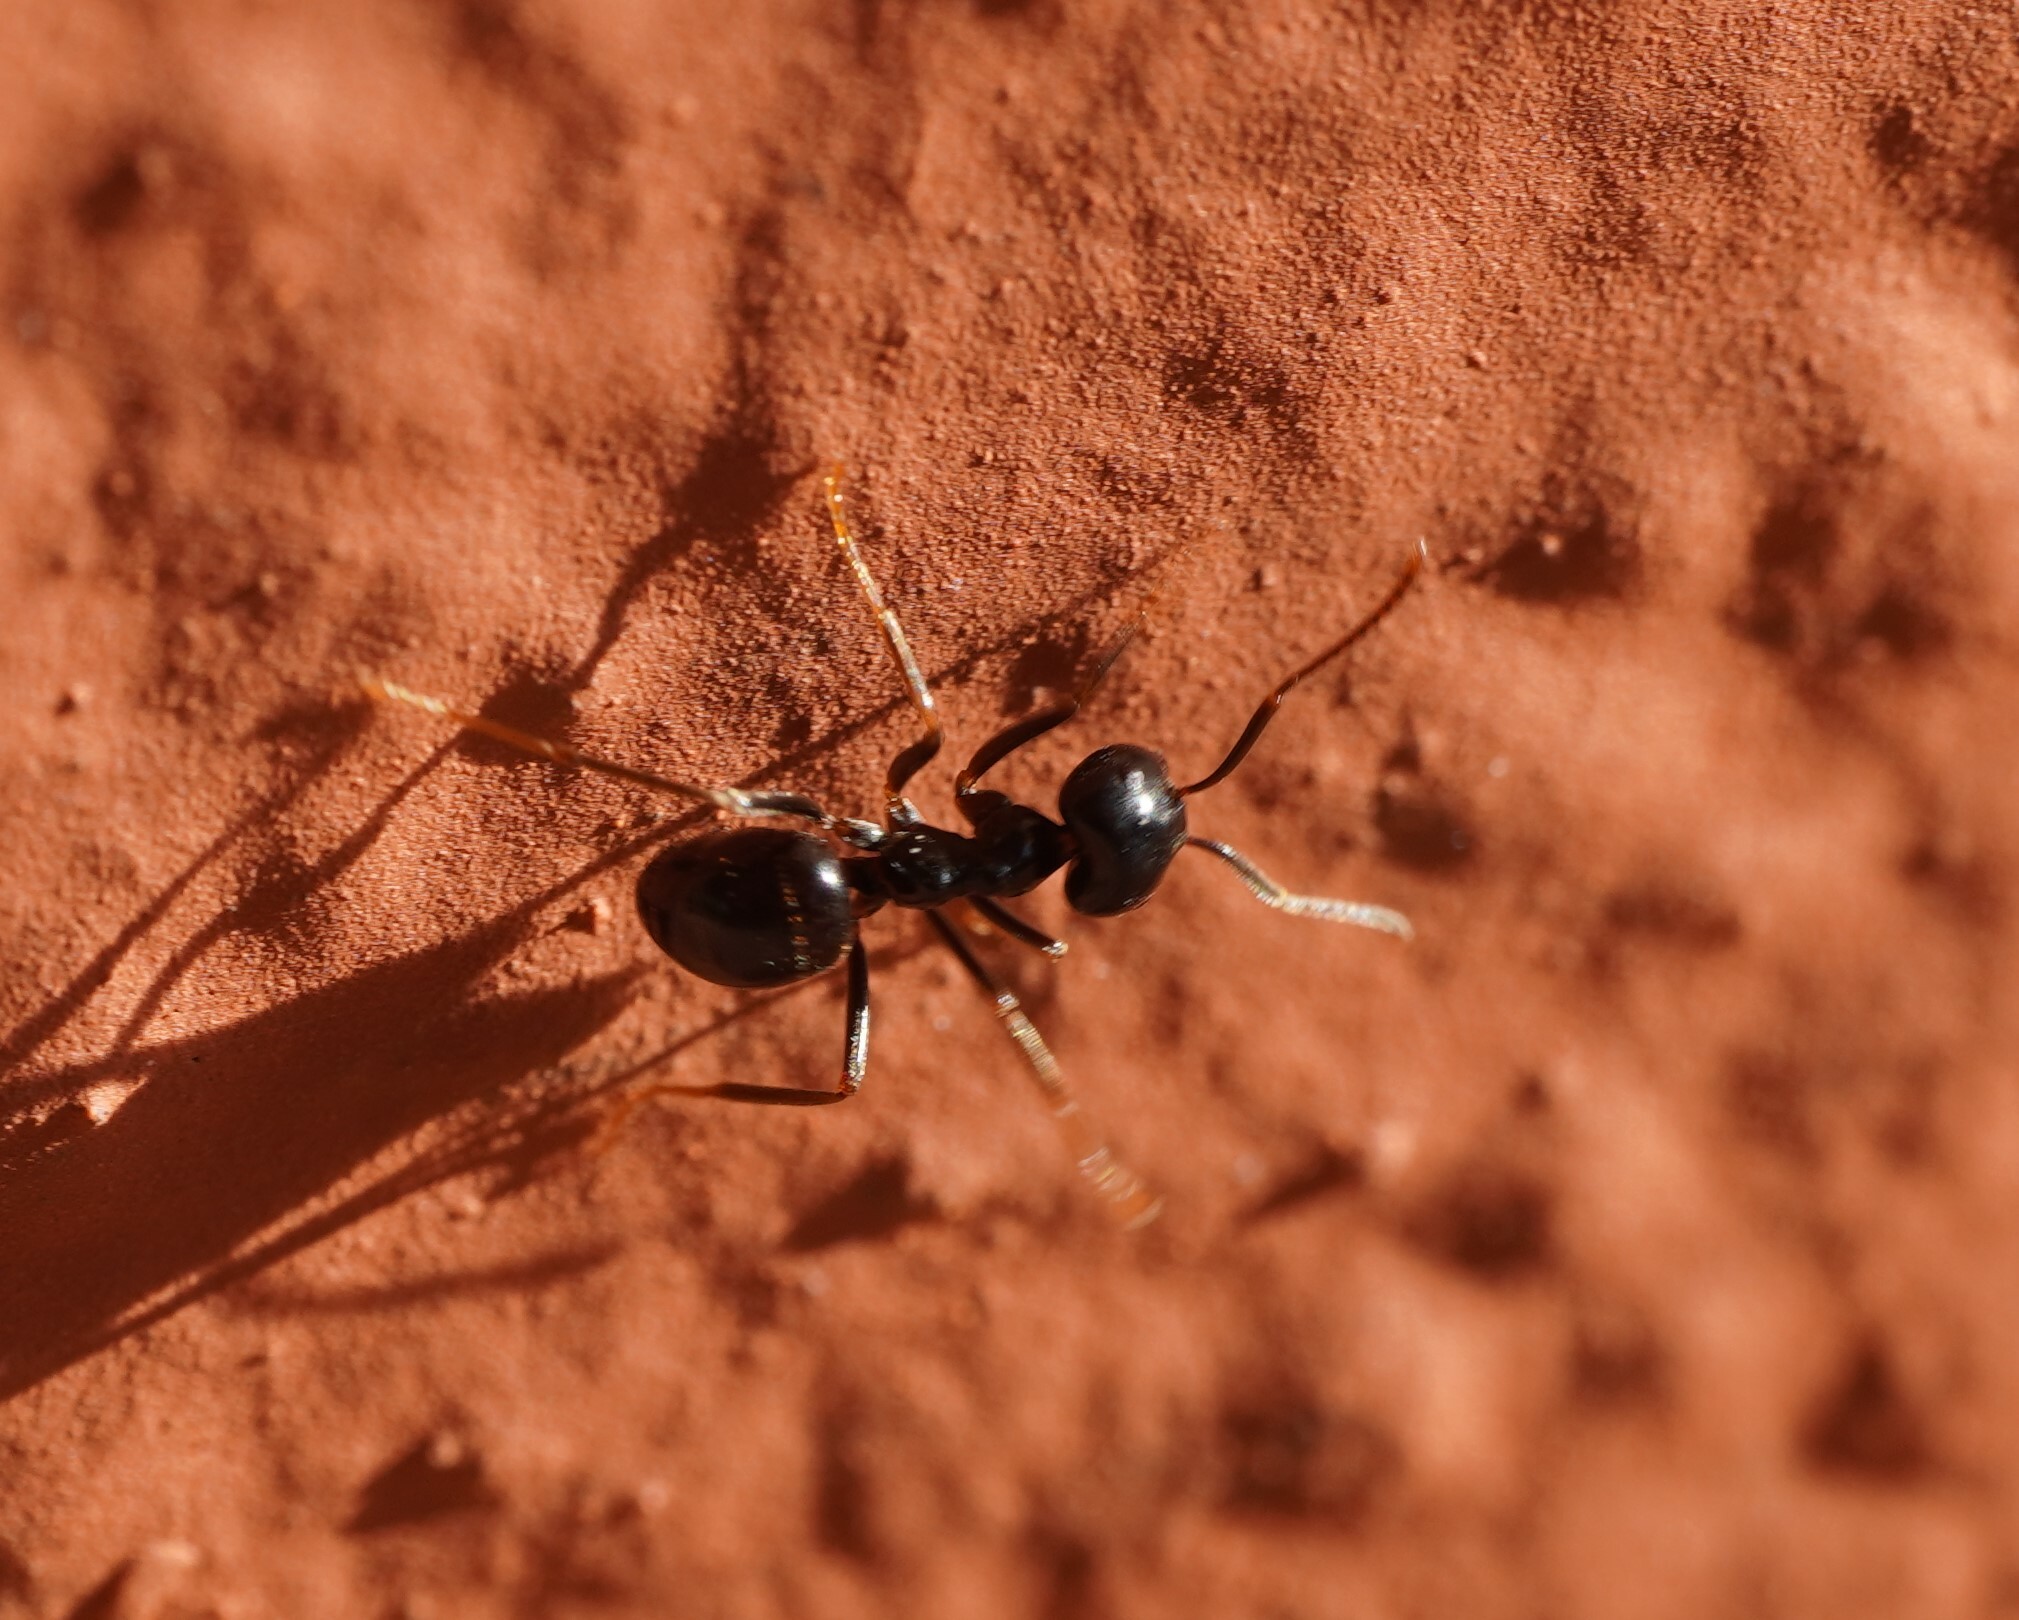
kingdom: Animalia
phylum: Arthropoda
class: Insecta
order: Hymenoptera
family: Formicidae
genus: Lasius
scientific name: Lasius fuliginosus
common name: Jet ant
